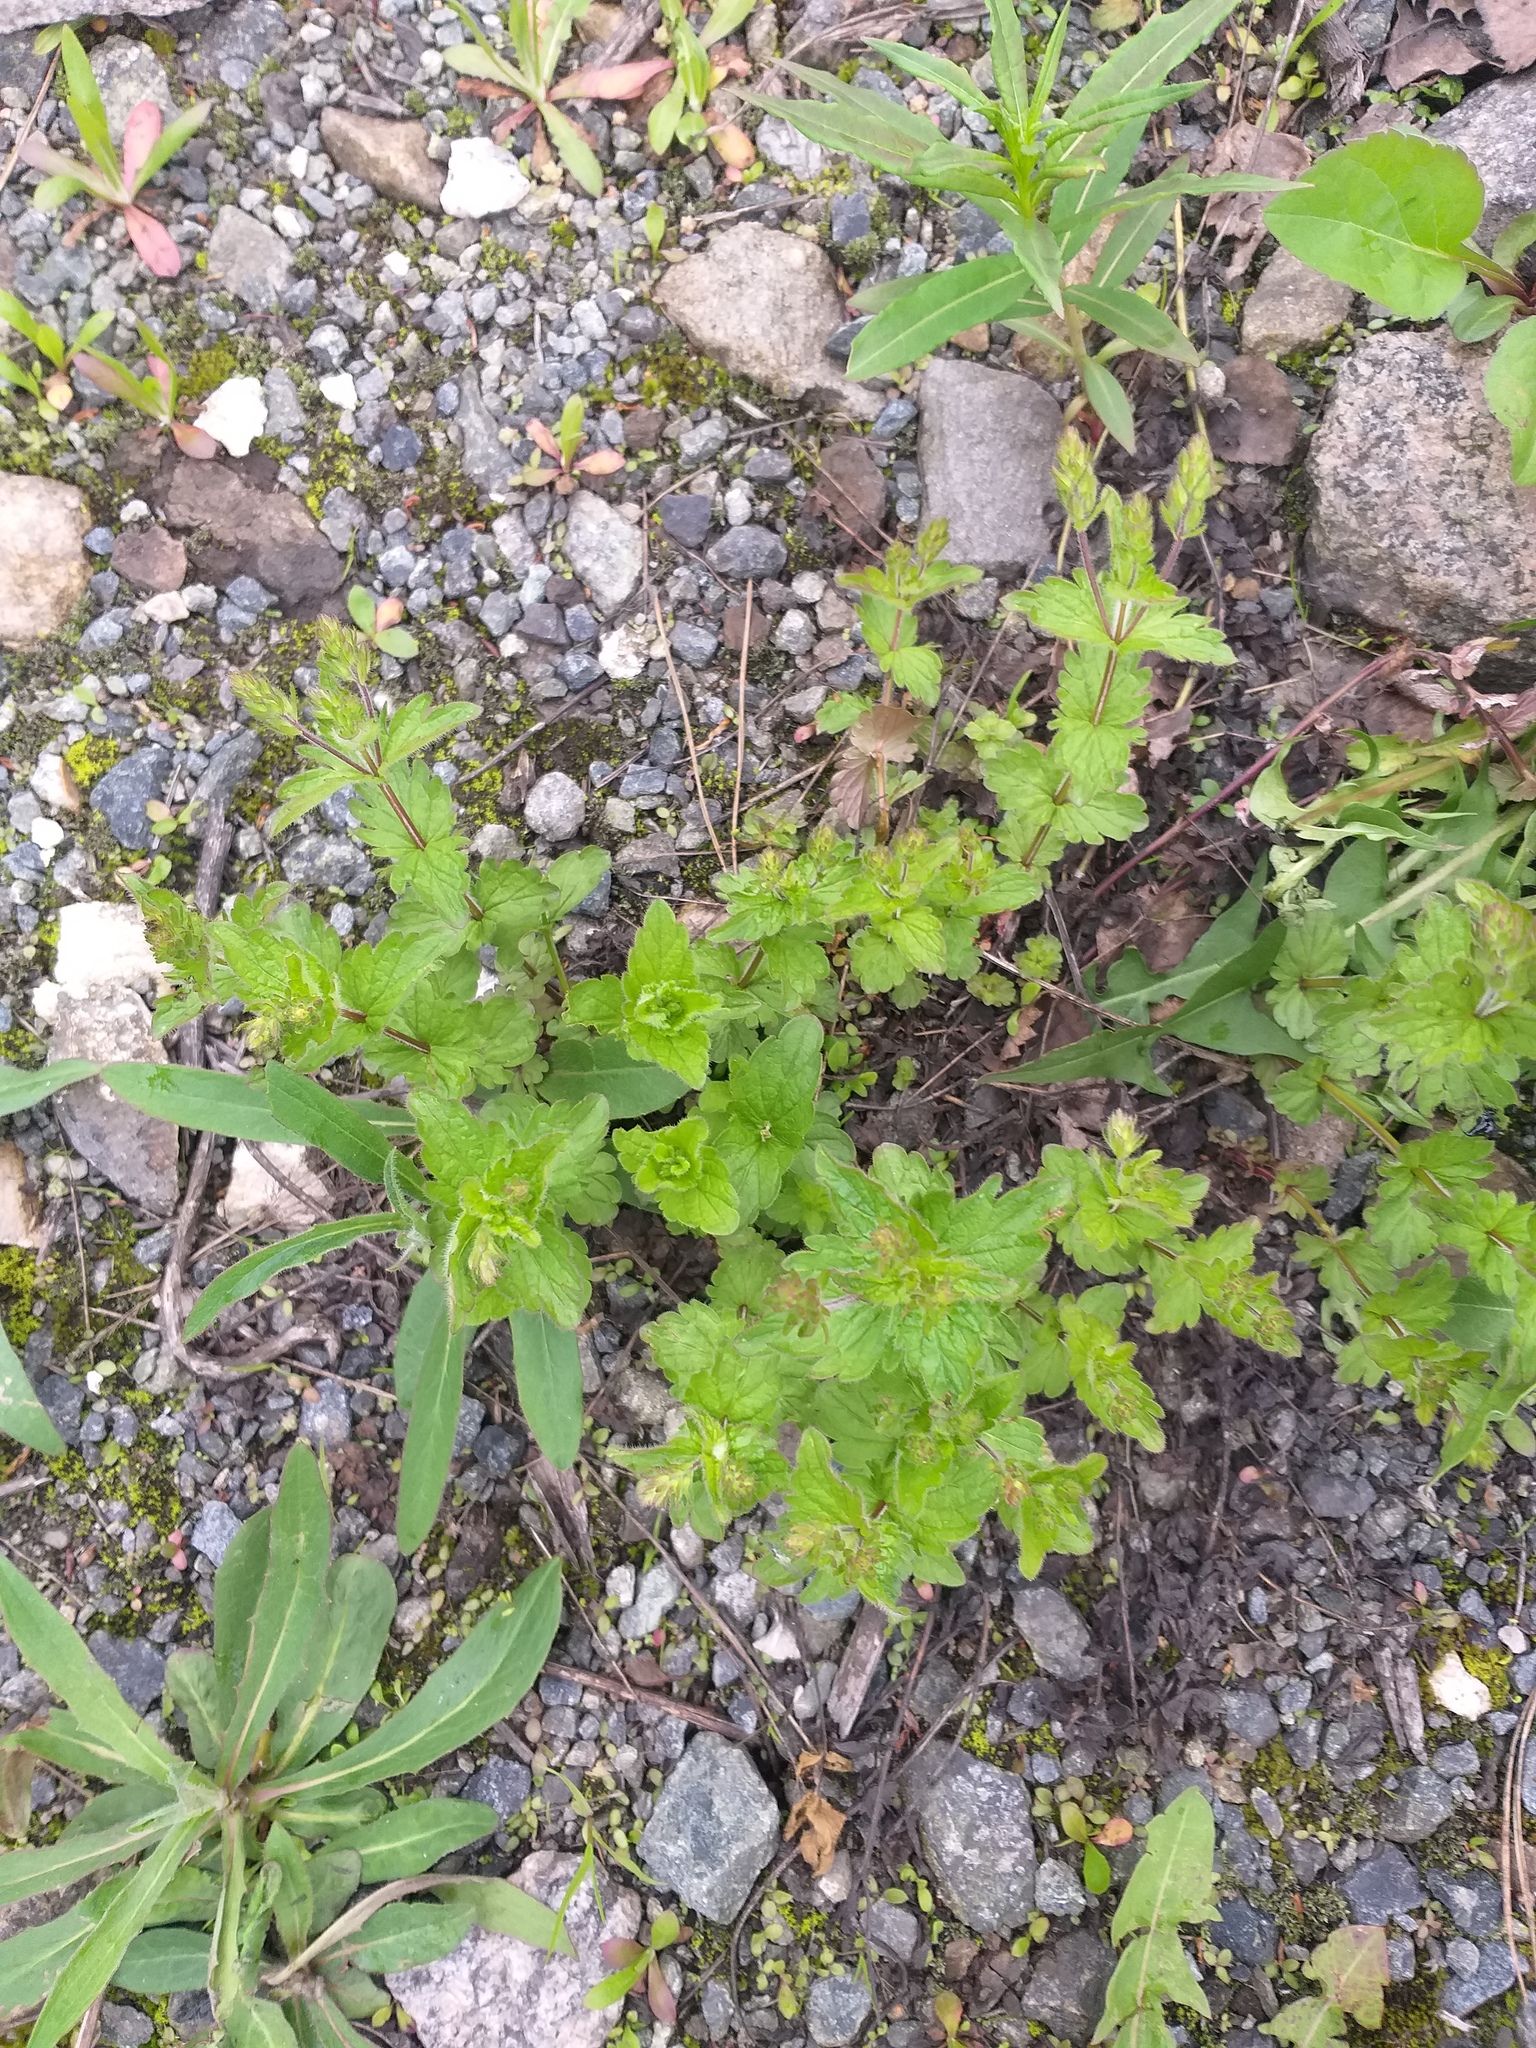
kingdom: Plantae
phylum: Tracheophyta
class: Magnoliopsida
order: Lamiales
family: Plantaginaceae
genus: Veronica
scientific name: Veronica chamaedrys
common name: Germander speedwell
